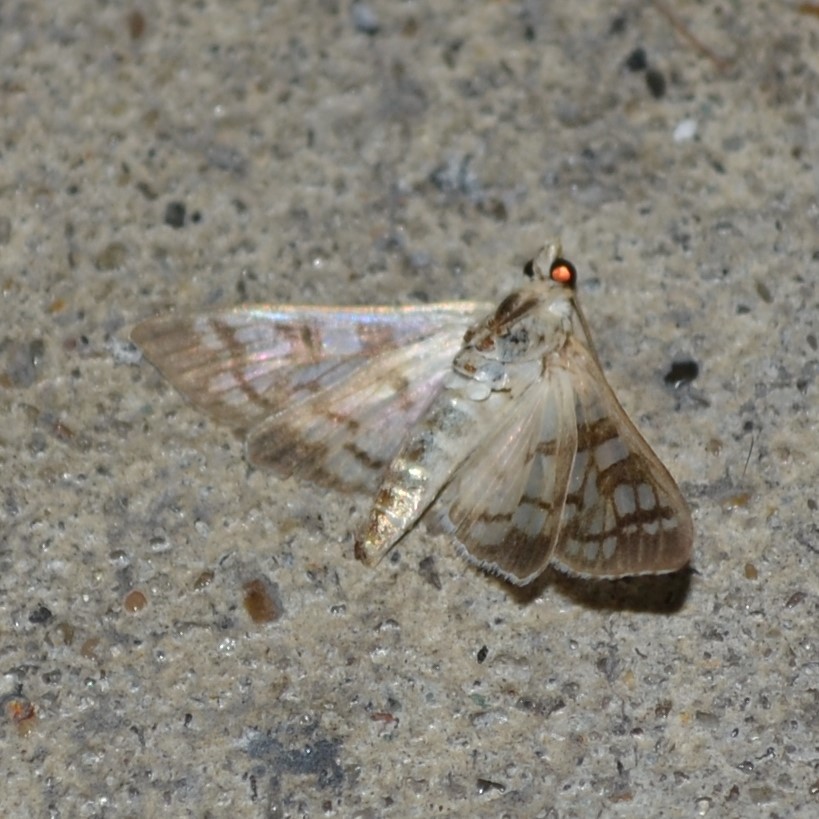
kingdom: Animalia
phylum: Arthropoda
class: Insecta
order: Lepidoptera
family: Crambidae
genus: Samea
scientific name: Samea multiplicalis
